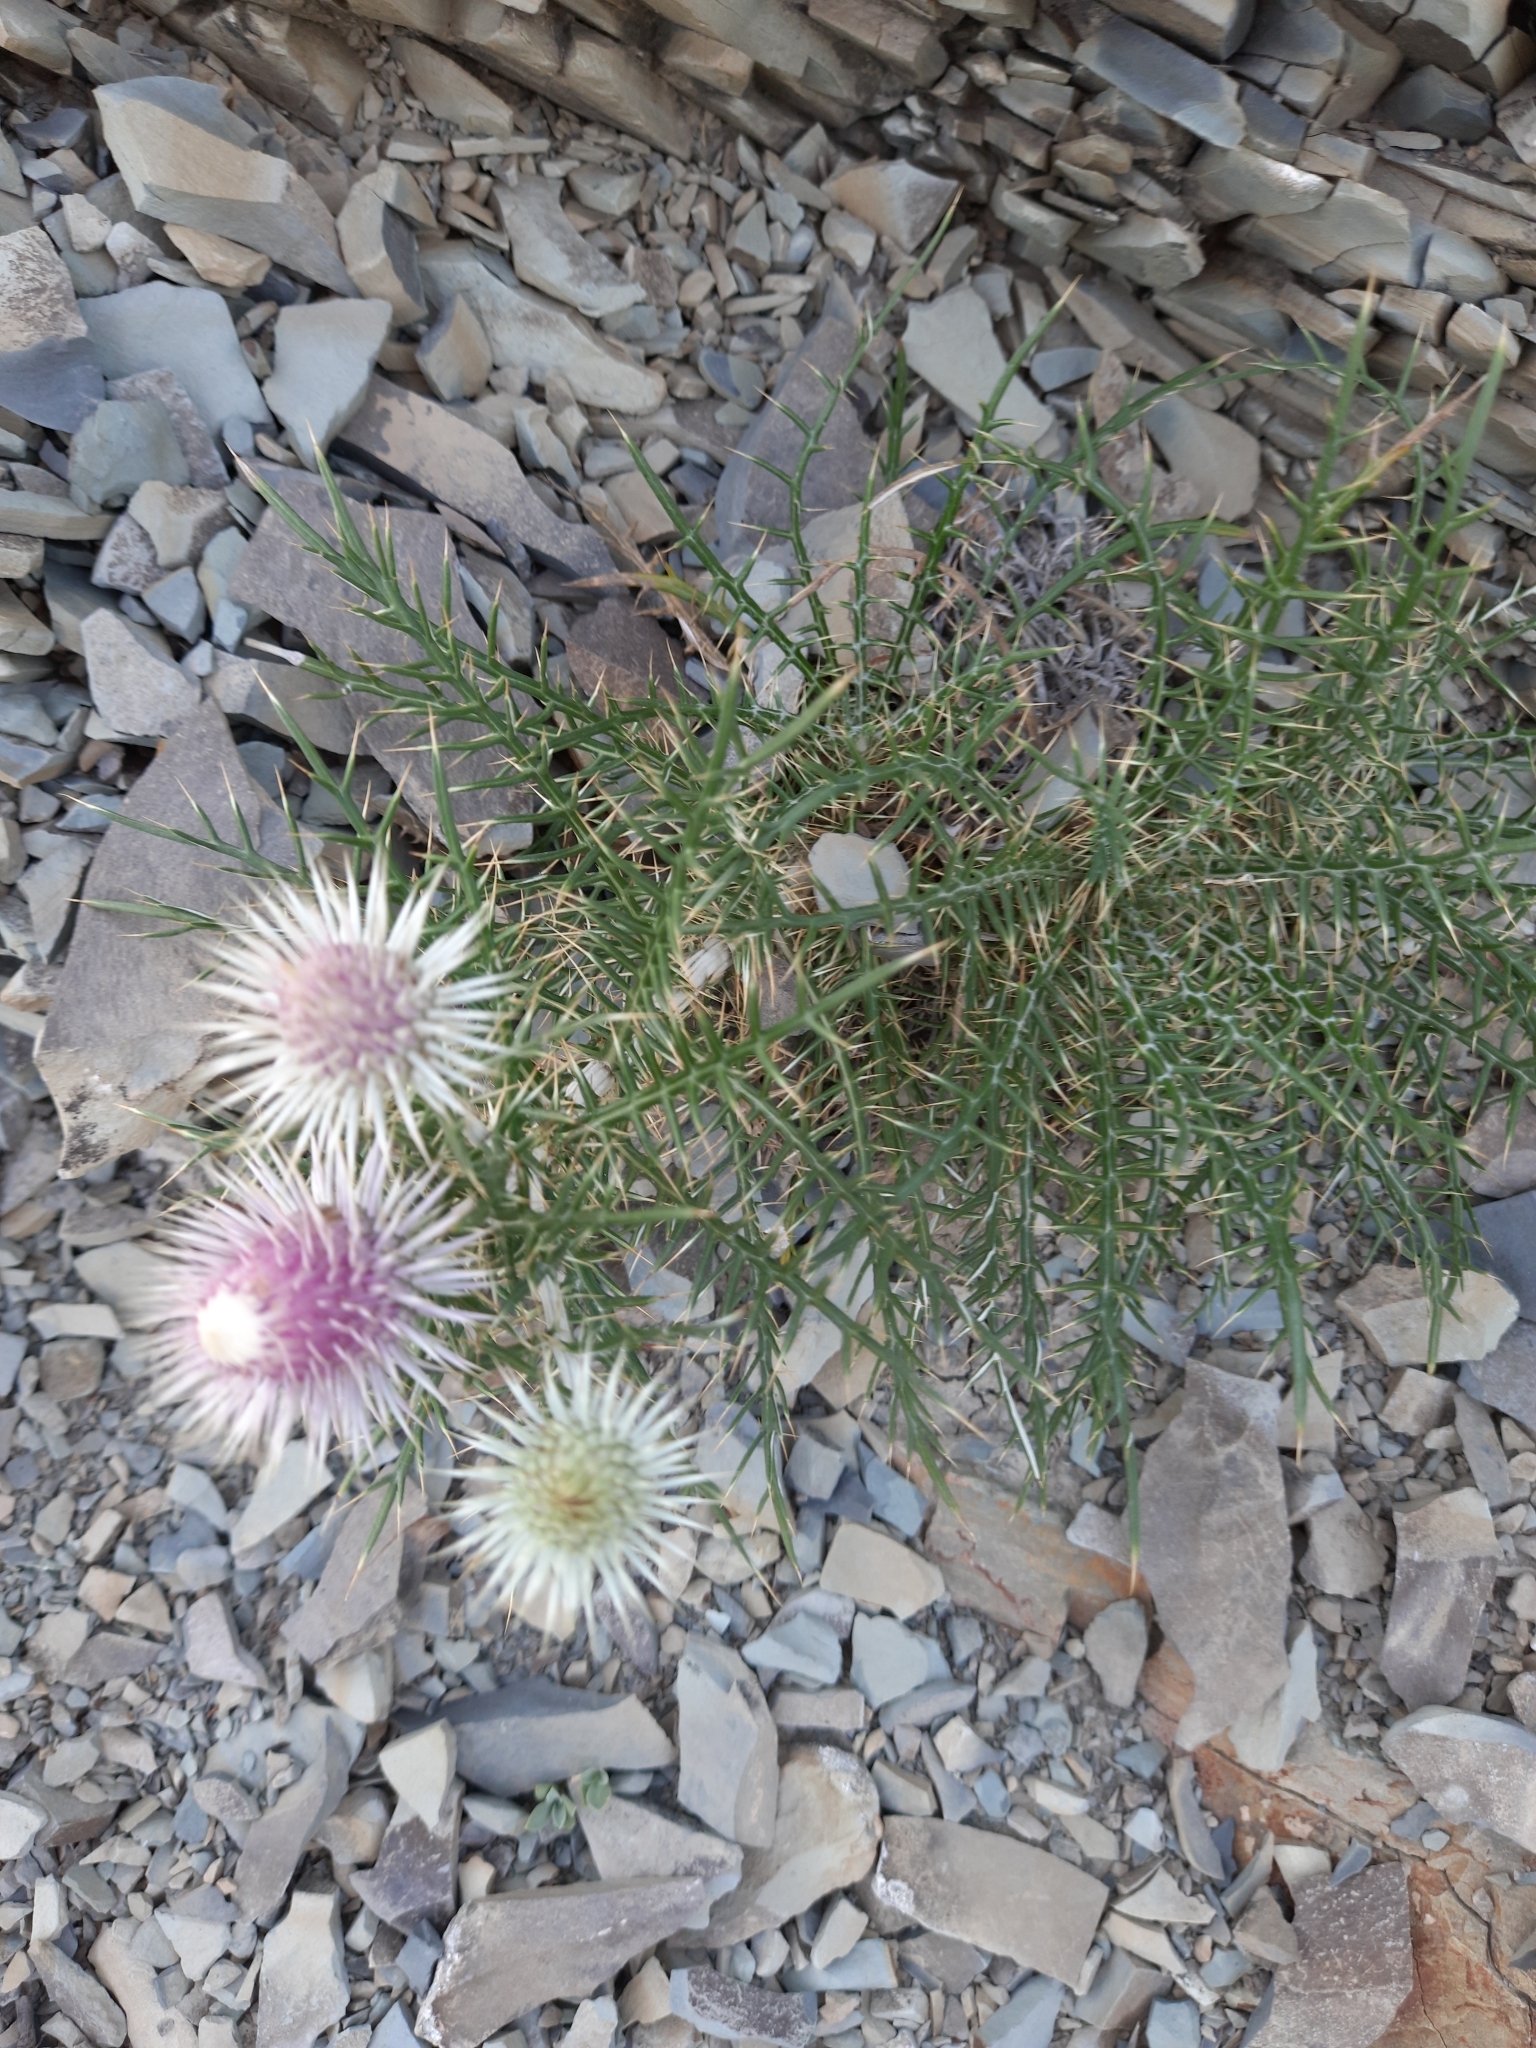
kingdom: Plantae
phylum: Tracheophyta
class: Magnoliopsida
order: Asterales
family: Asteraceae
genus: Ptilostemon
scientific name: Ptilostemon echinocephalus
